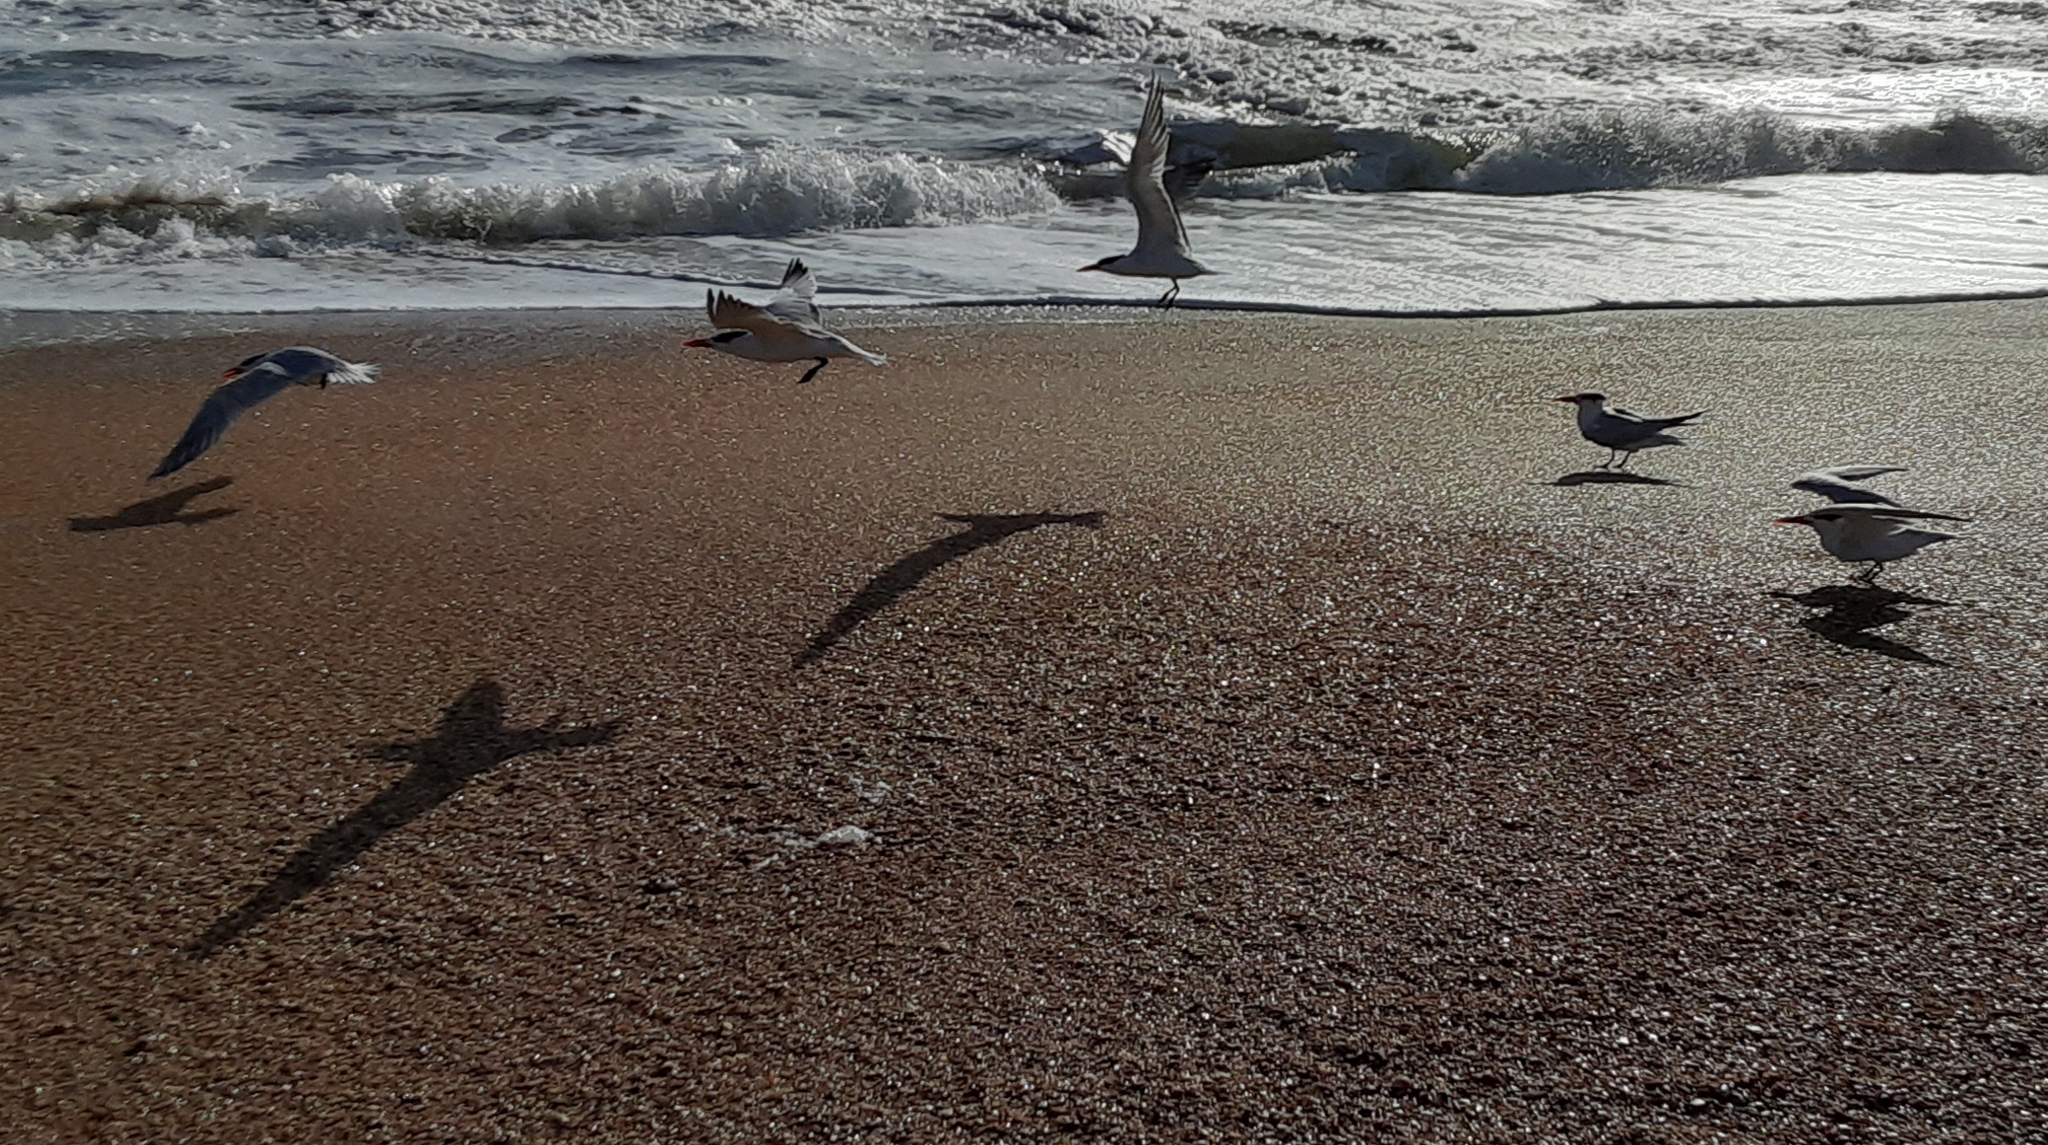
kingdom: Animalia
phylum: Chordata
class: Aves
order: Charadriiformes
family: Laridae
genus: Thalasseus
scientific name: Thalasseus maximus
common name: Royal tern
